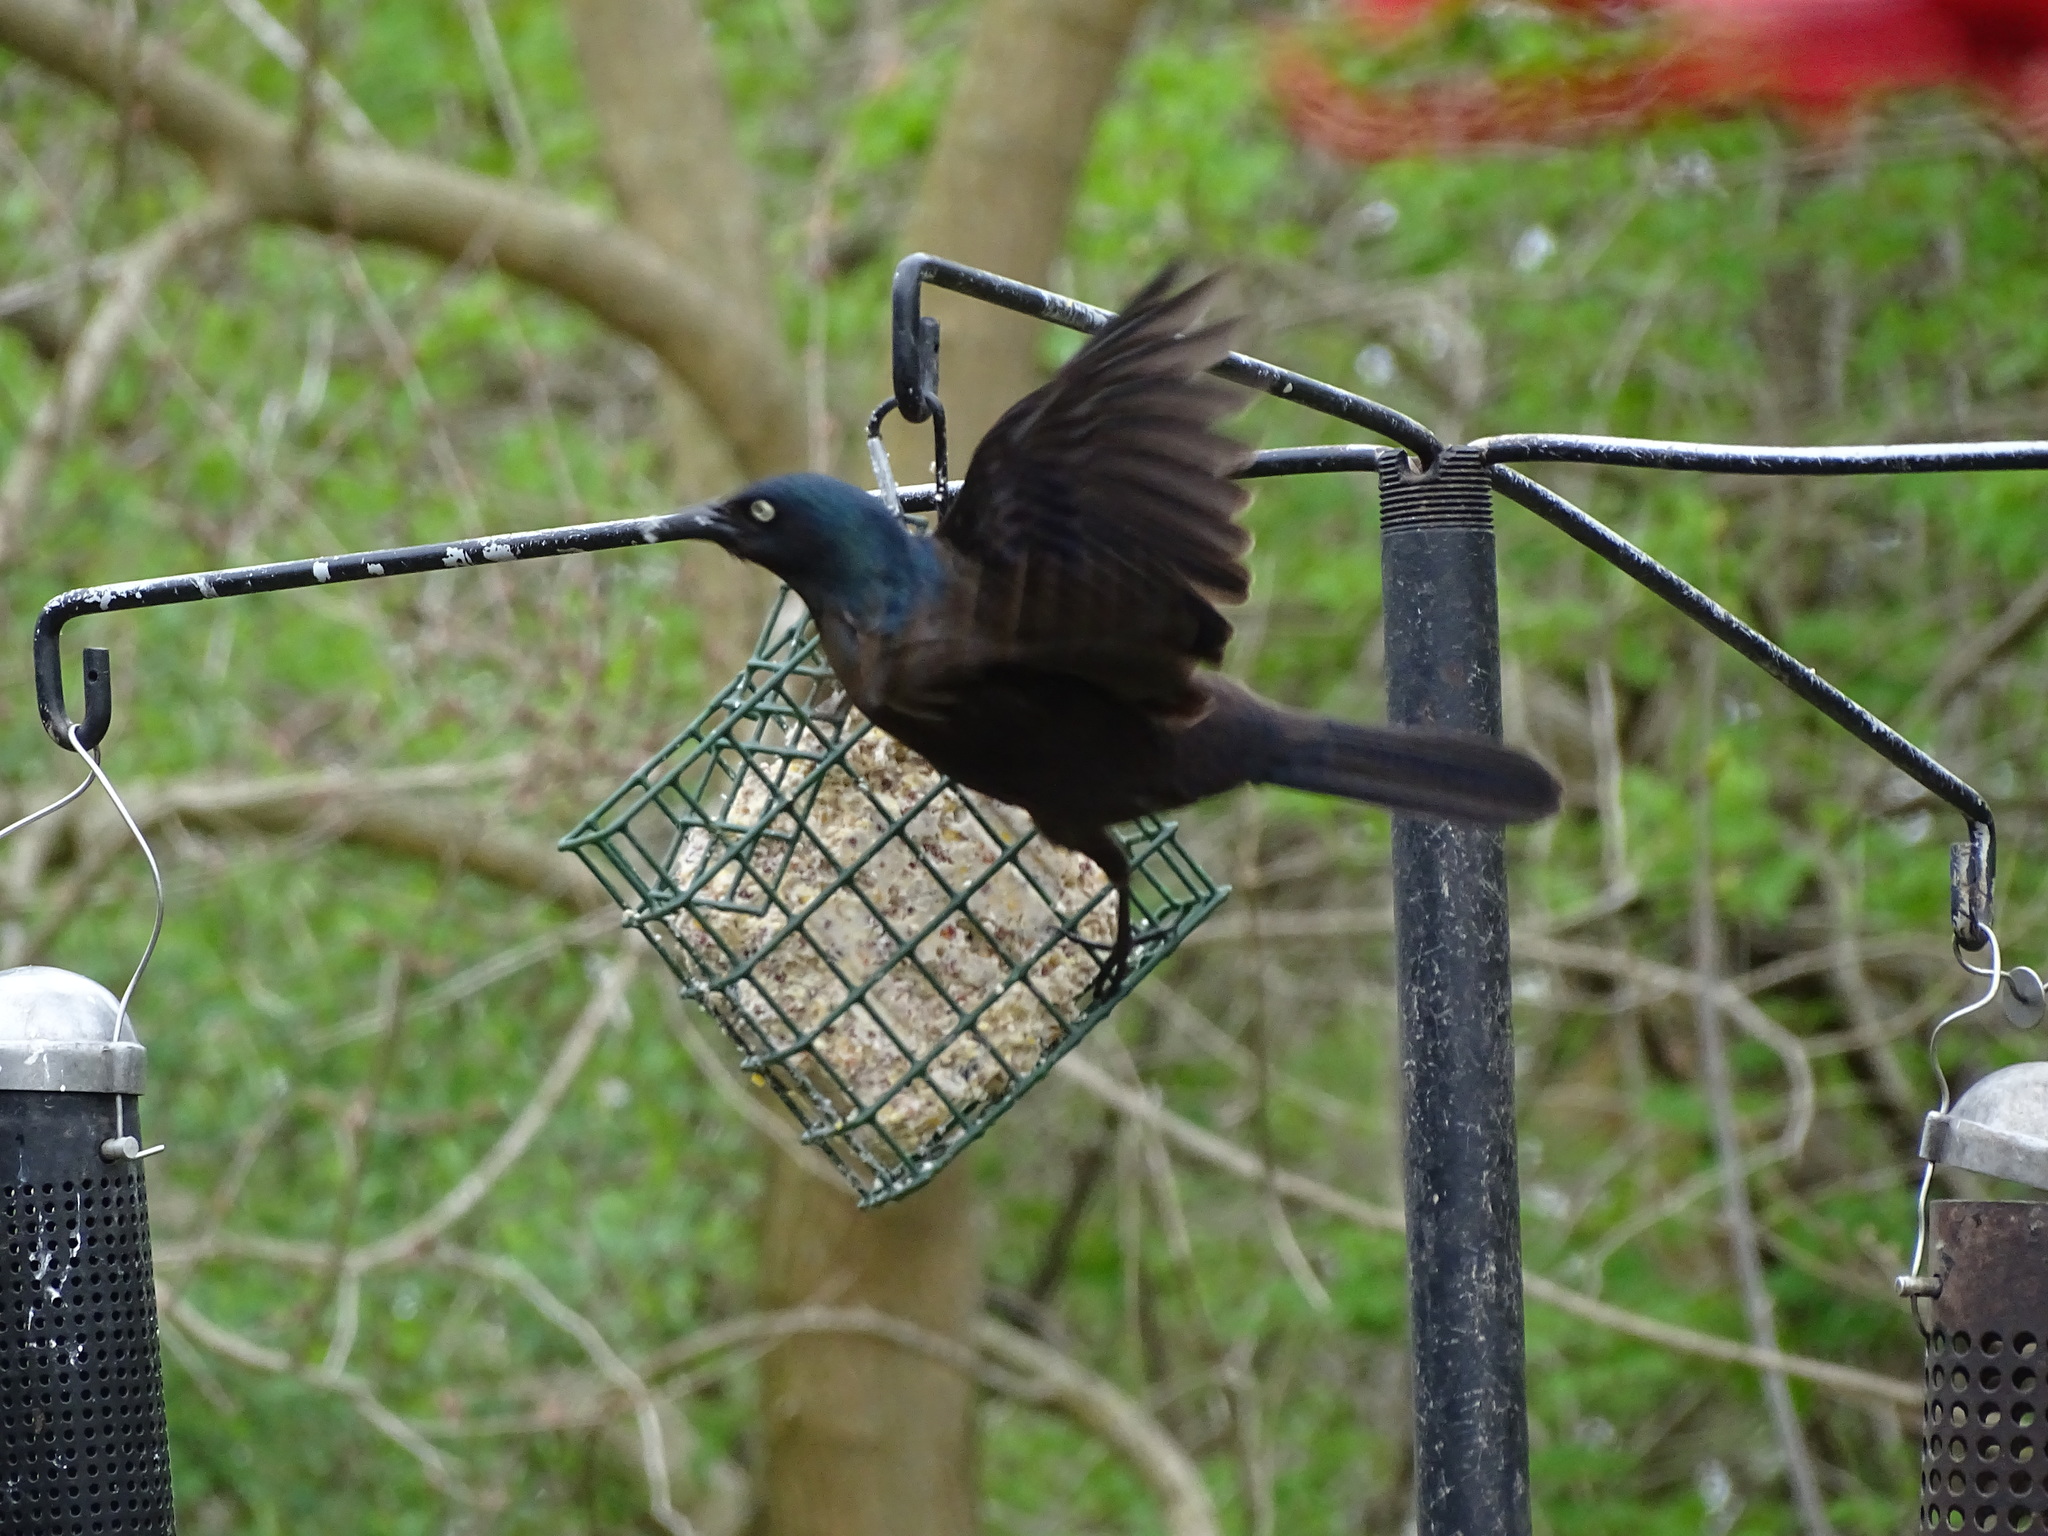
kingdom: Animalia
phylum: Chordata
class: Aves
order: Passeriformes
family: Icteridae
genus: Quiscalus
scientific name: Quiscalus quiscula
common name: Common grackle
